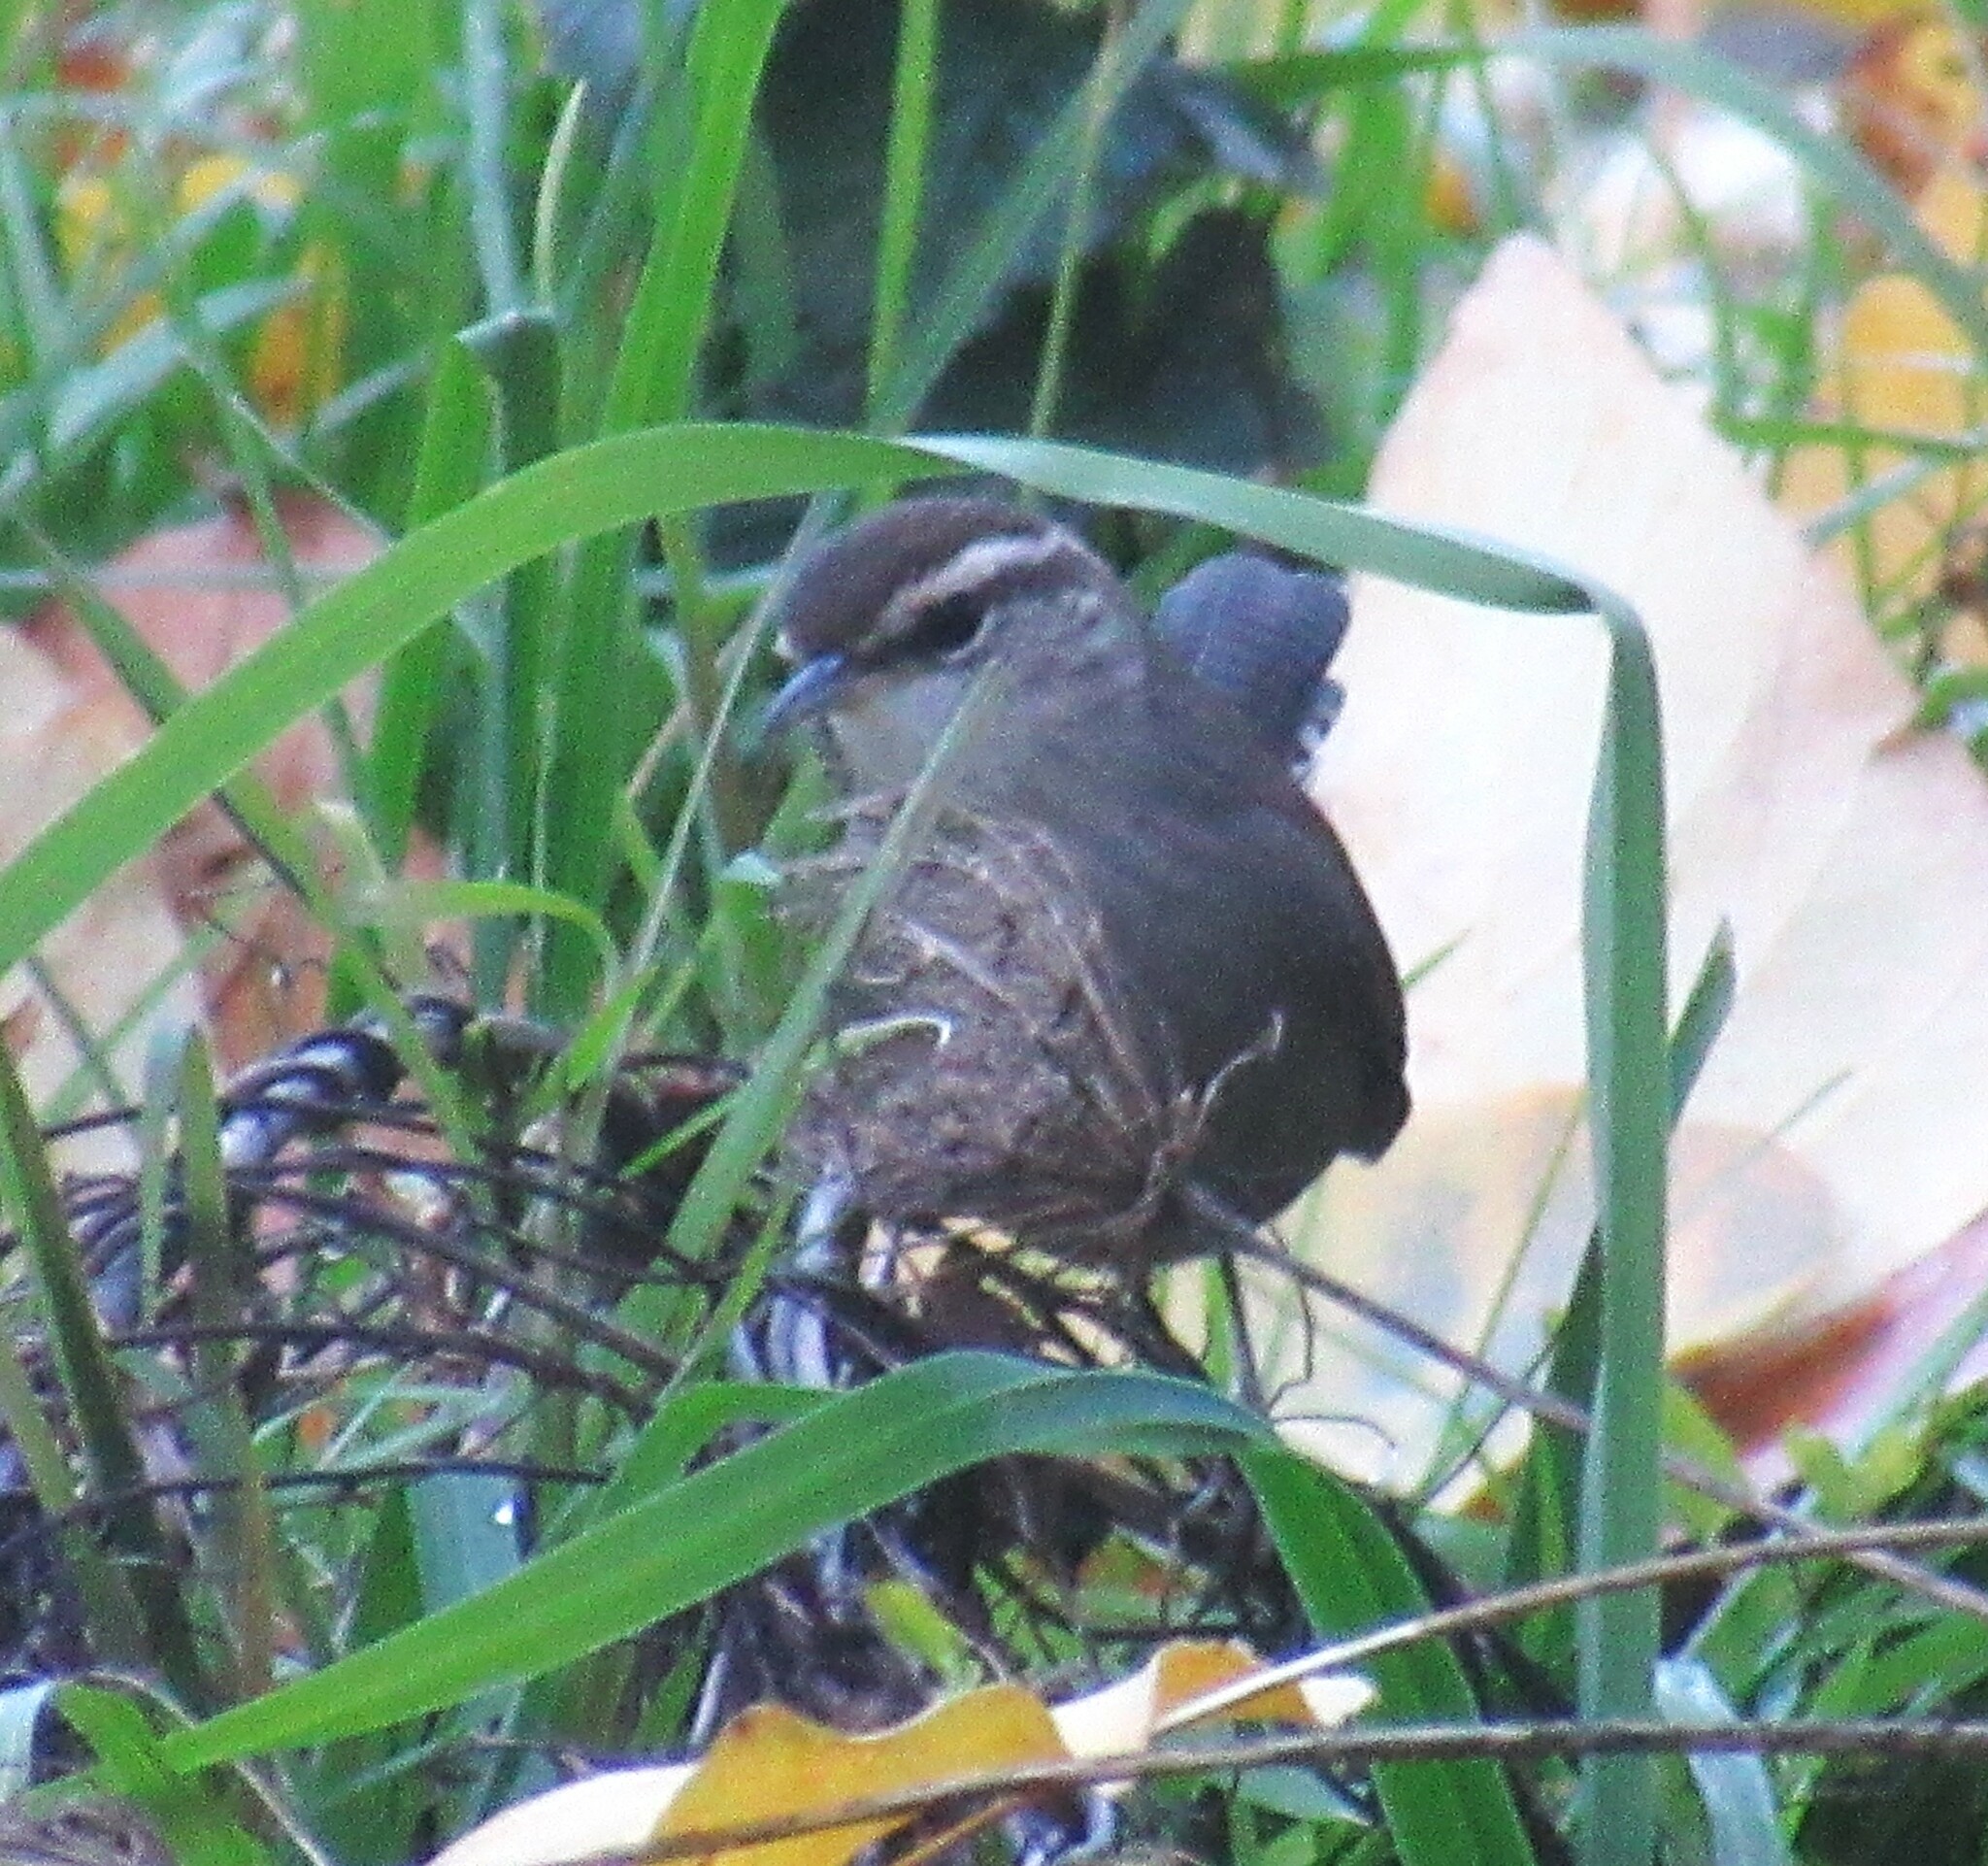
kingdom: Animalia
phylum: Chordata
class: Aves
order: Passeriformes
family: Troglodytidae
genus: Thryomanes
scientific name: Thryomanes bewickii
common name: Bewick's wren
